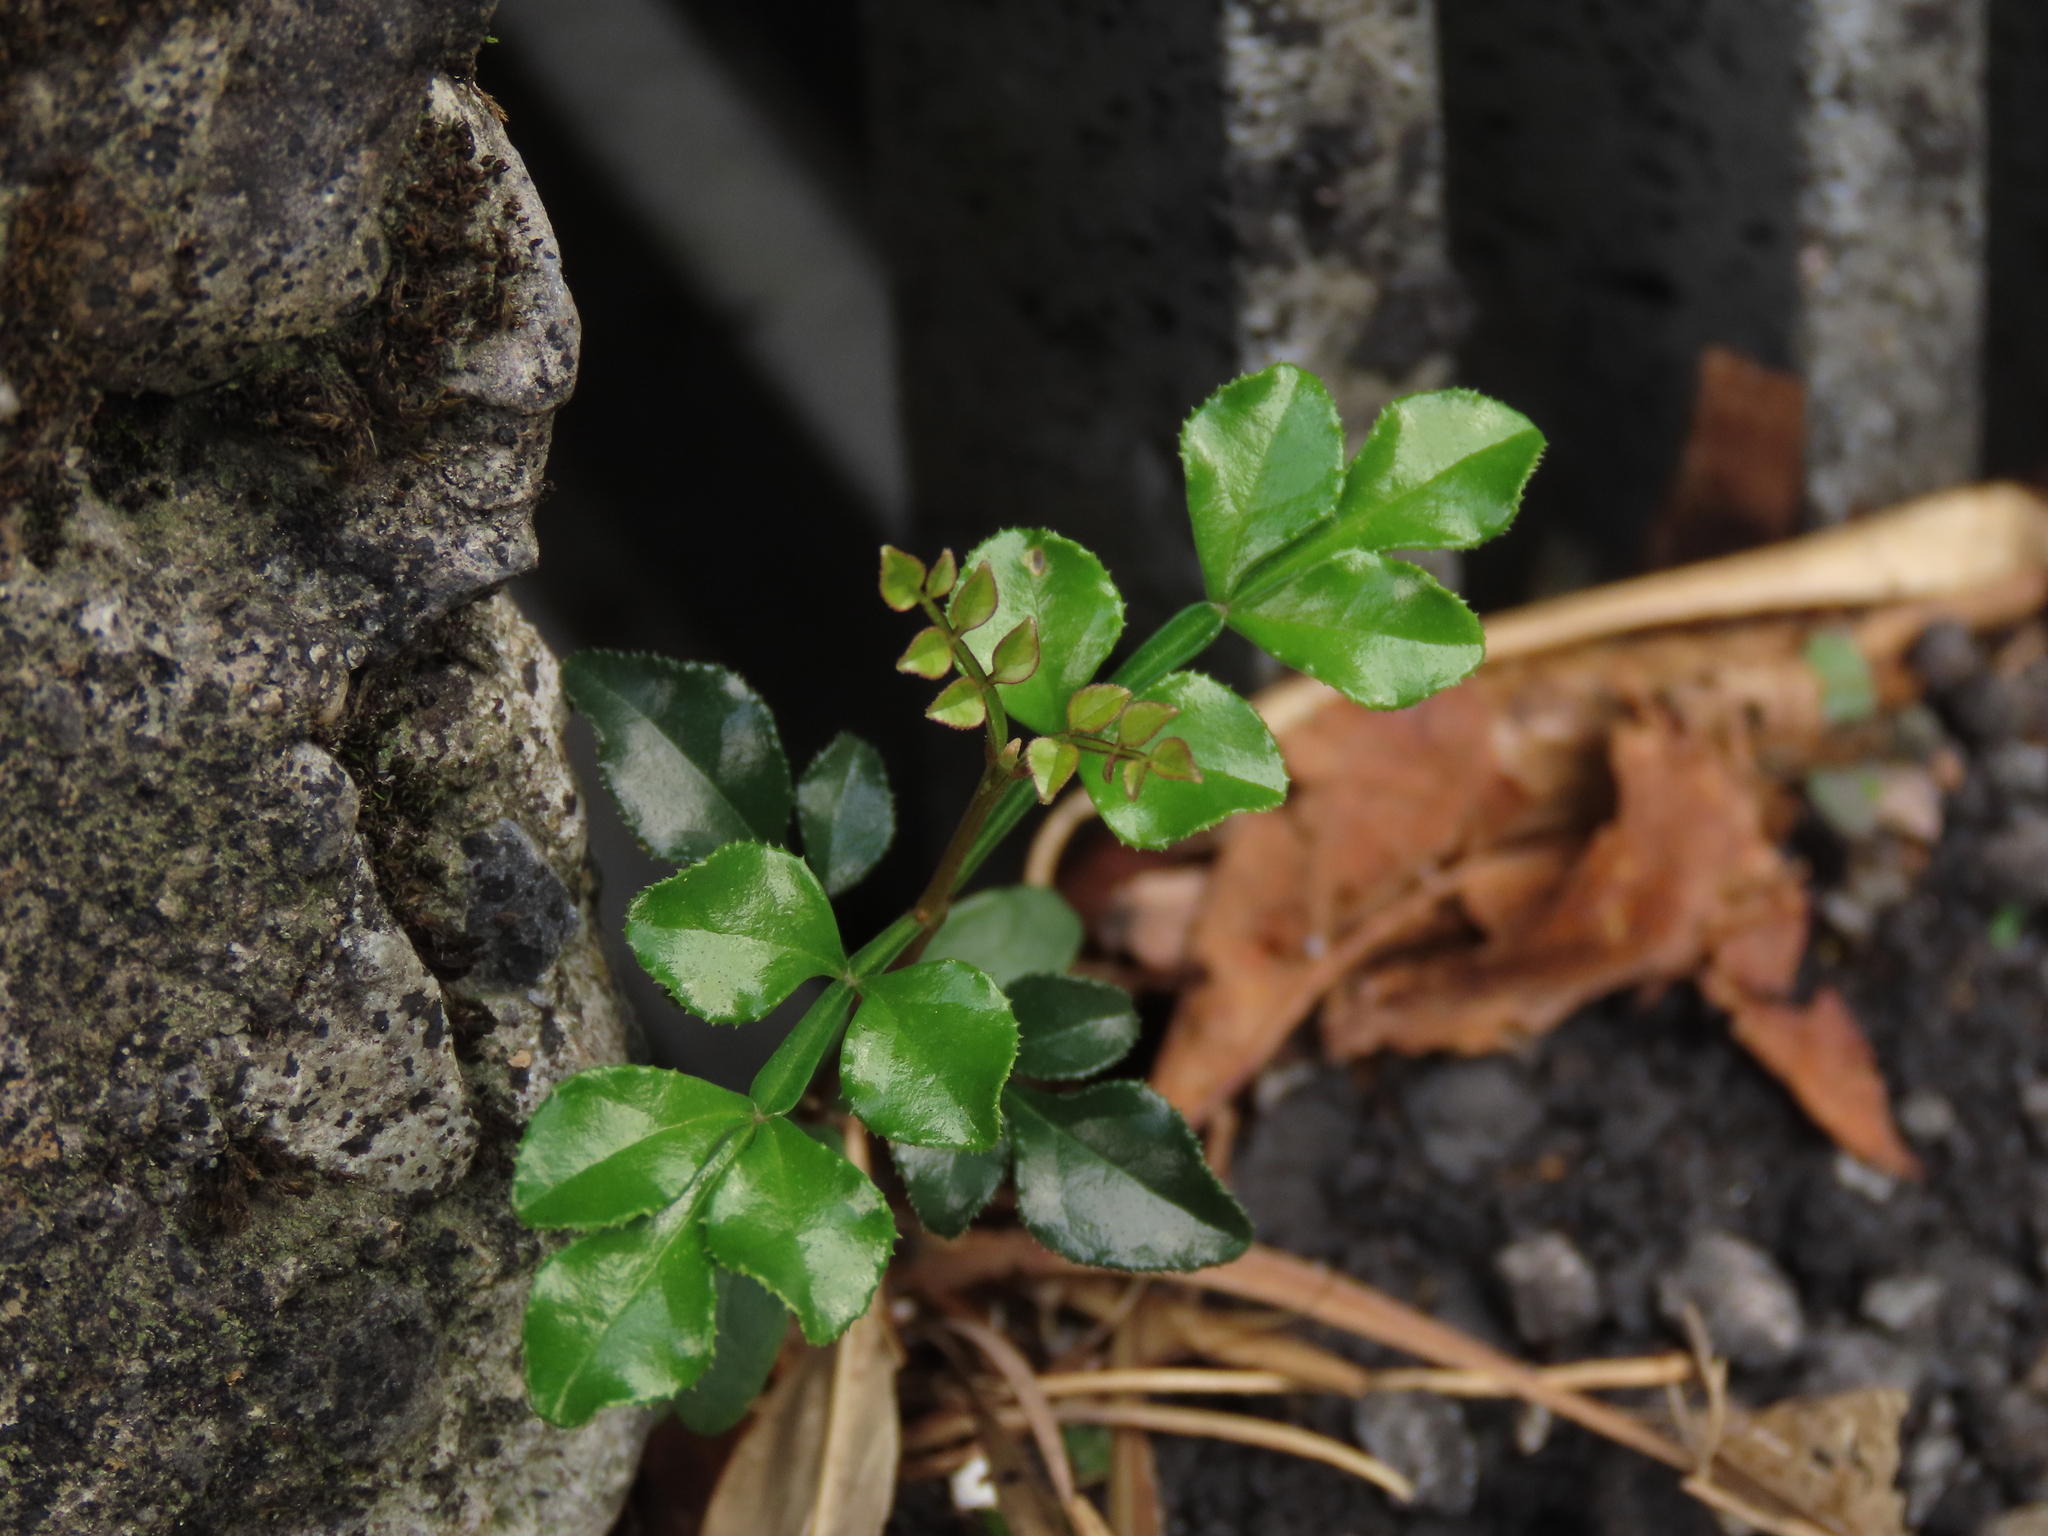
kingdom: Plantae
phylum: Tracheophyta
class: Magnoliopsida
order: Lamiales
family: Oleaceae
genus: Fraxinus
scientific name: Fraxinus griffithii
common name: Himalayan ash
